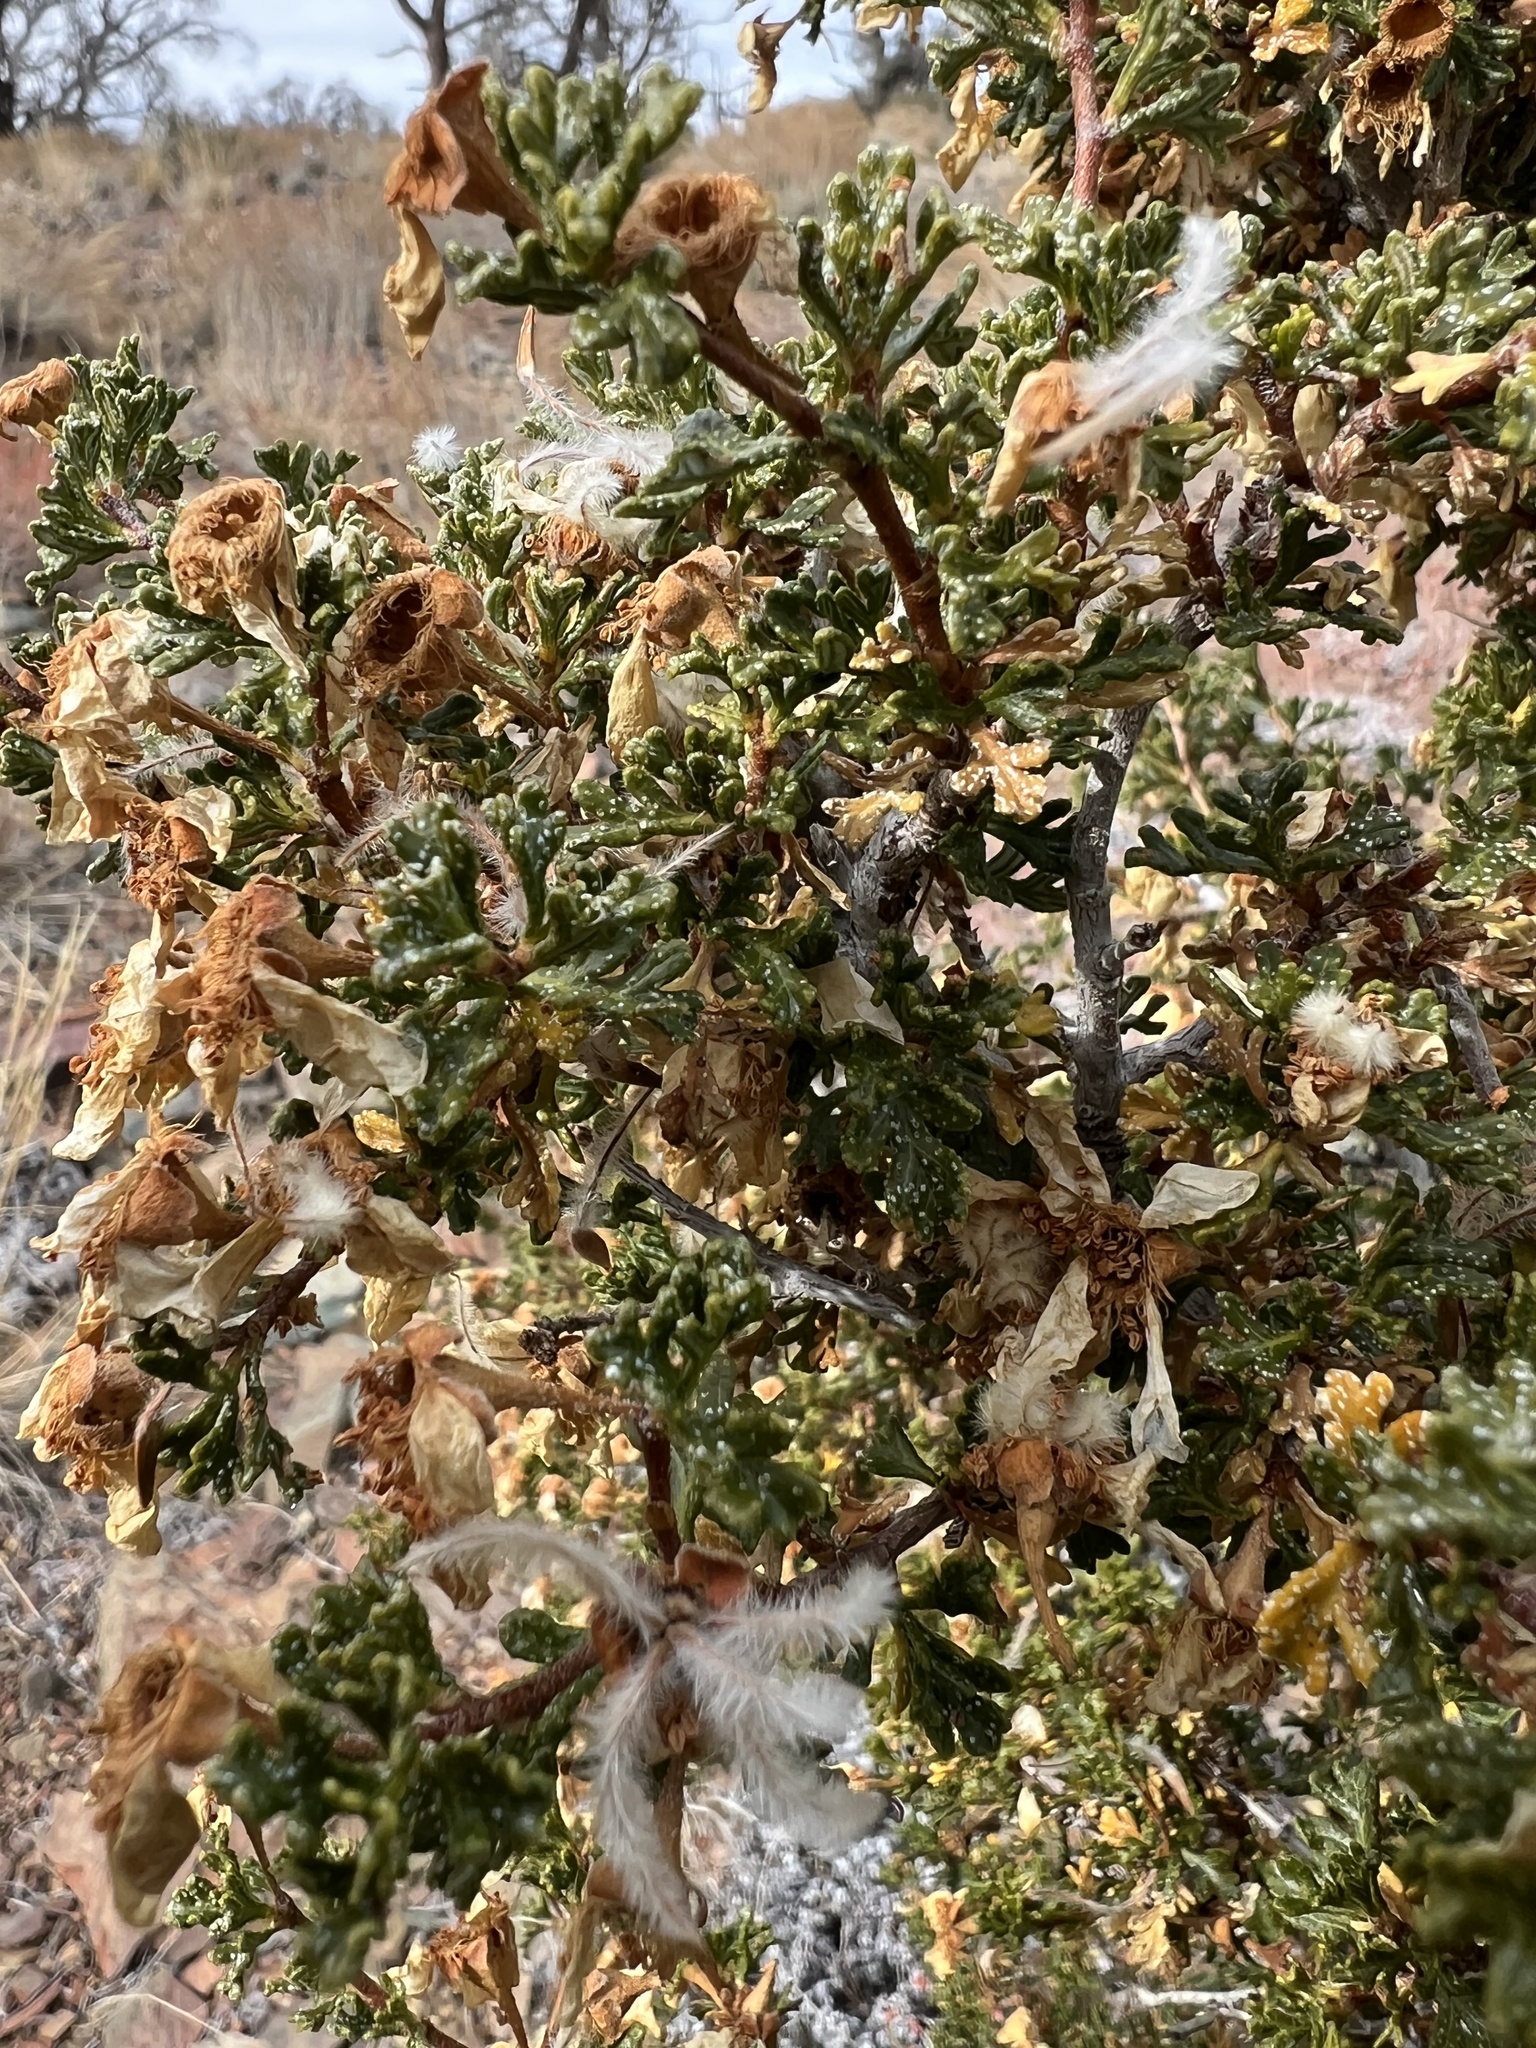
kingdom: Plantae
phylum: Tracheophyta
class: Magnoliopsida
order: Rosales
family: Rosaceae
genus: Purshia
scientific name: Purshia stansburiana
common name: Stansbury's cliffrose
